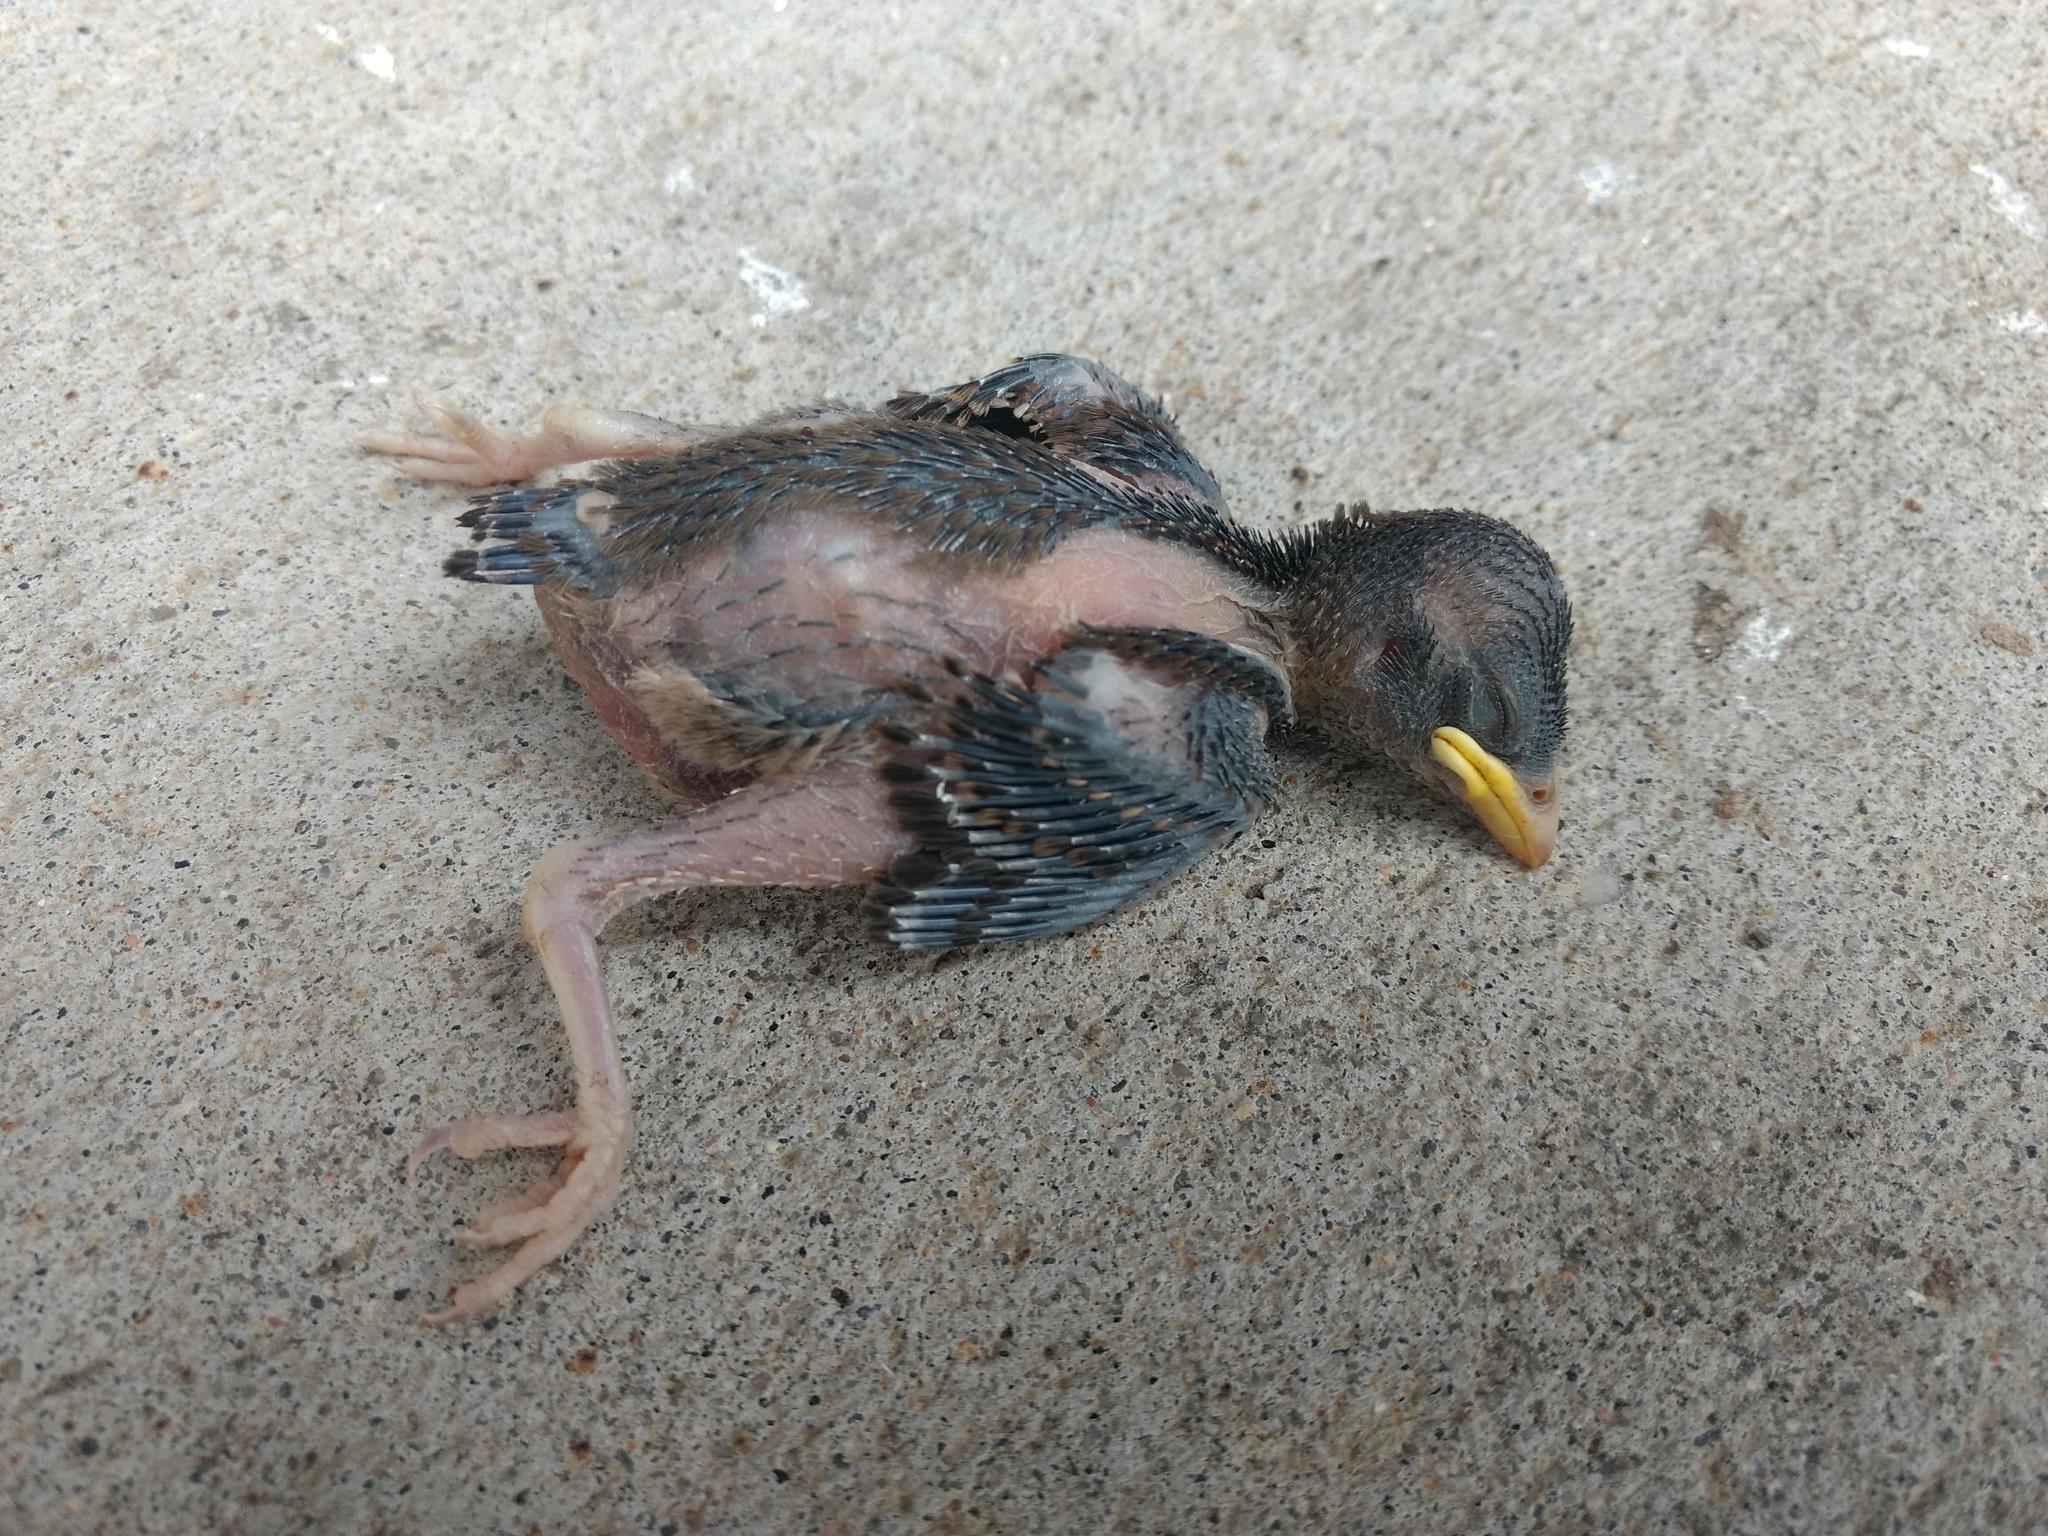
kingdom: Animalia
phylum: Chordata
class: Aves
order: Passeriformes
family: Passeridae
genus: Passer
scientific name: Passer domesticus
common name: House sparrow
